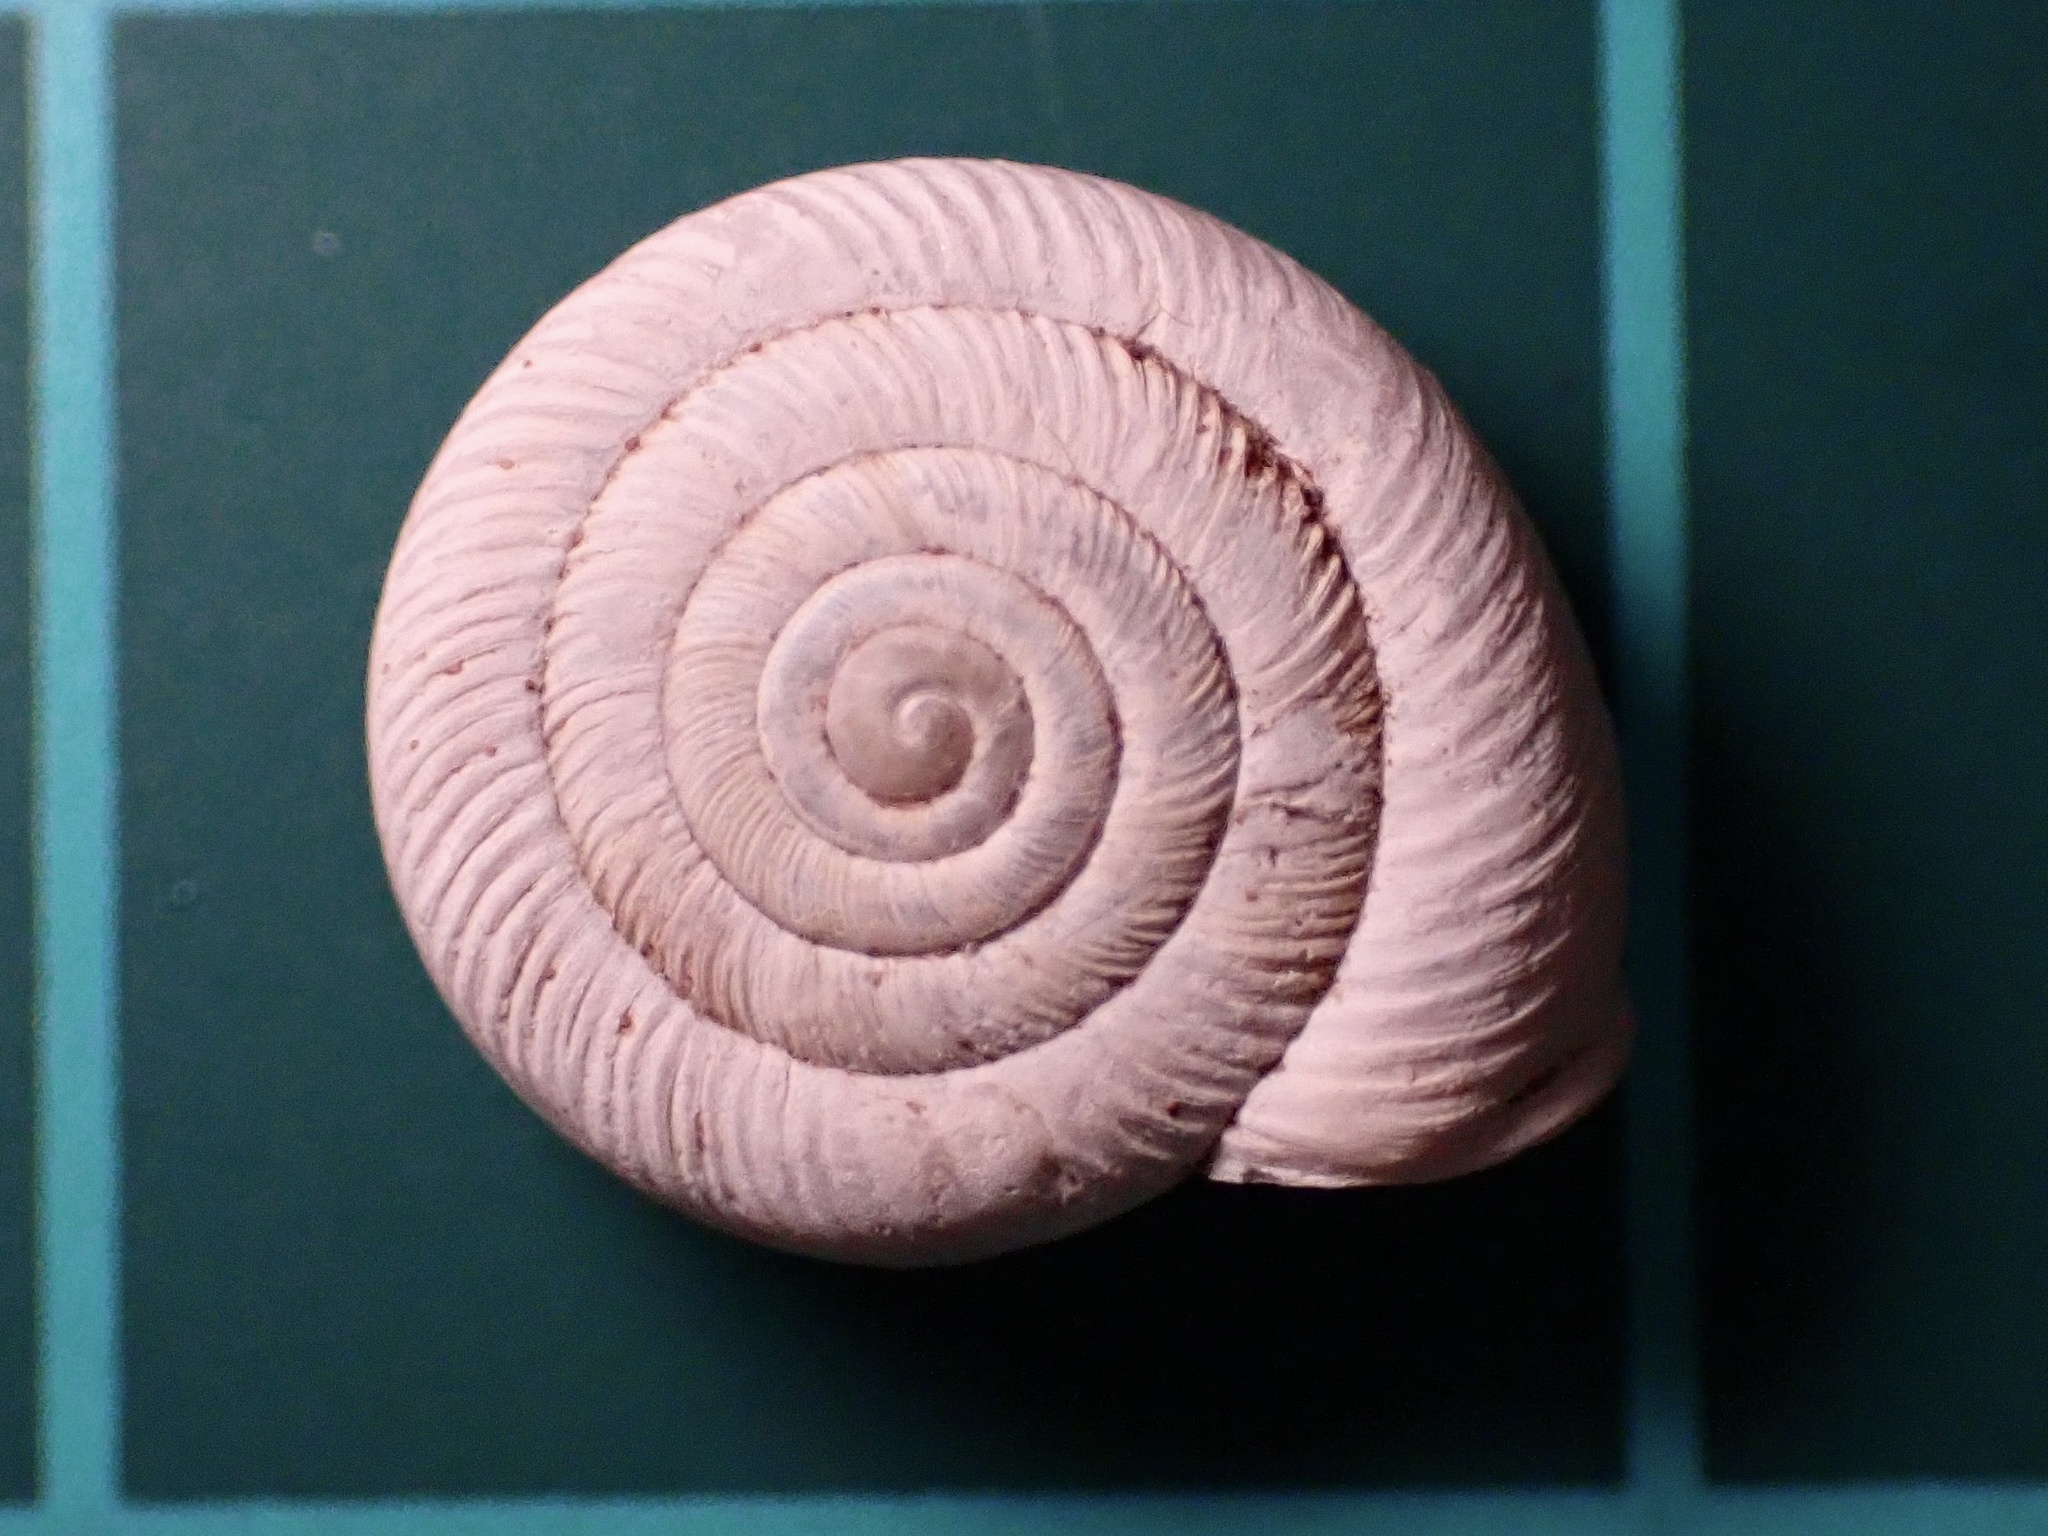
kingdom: Animalia
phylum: Mollusca
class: Gastropoda
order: Stylommatophora
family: Polygyridae
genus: Polygyra
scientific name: Polygyra cereolus
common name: Southern flatcone snail
